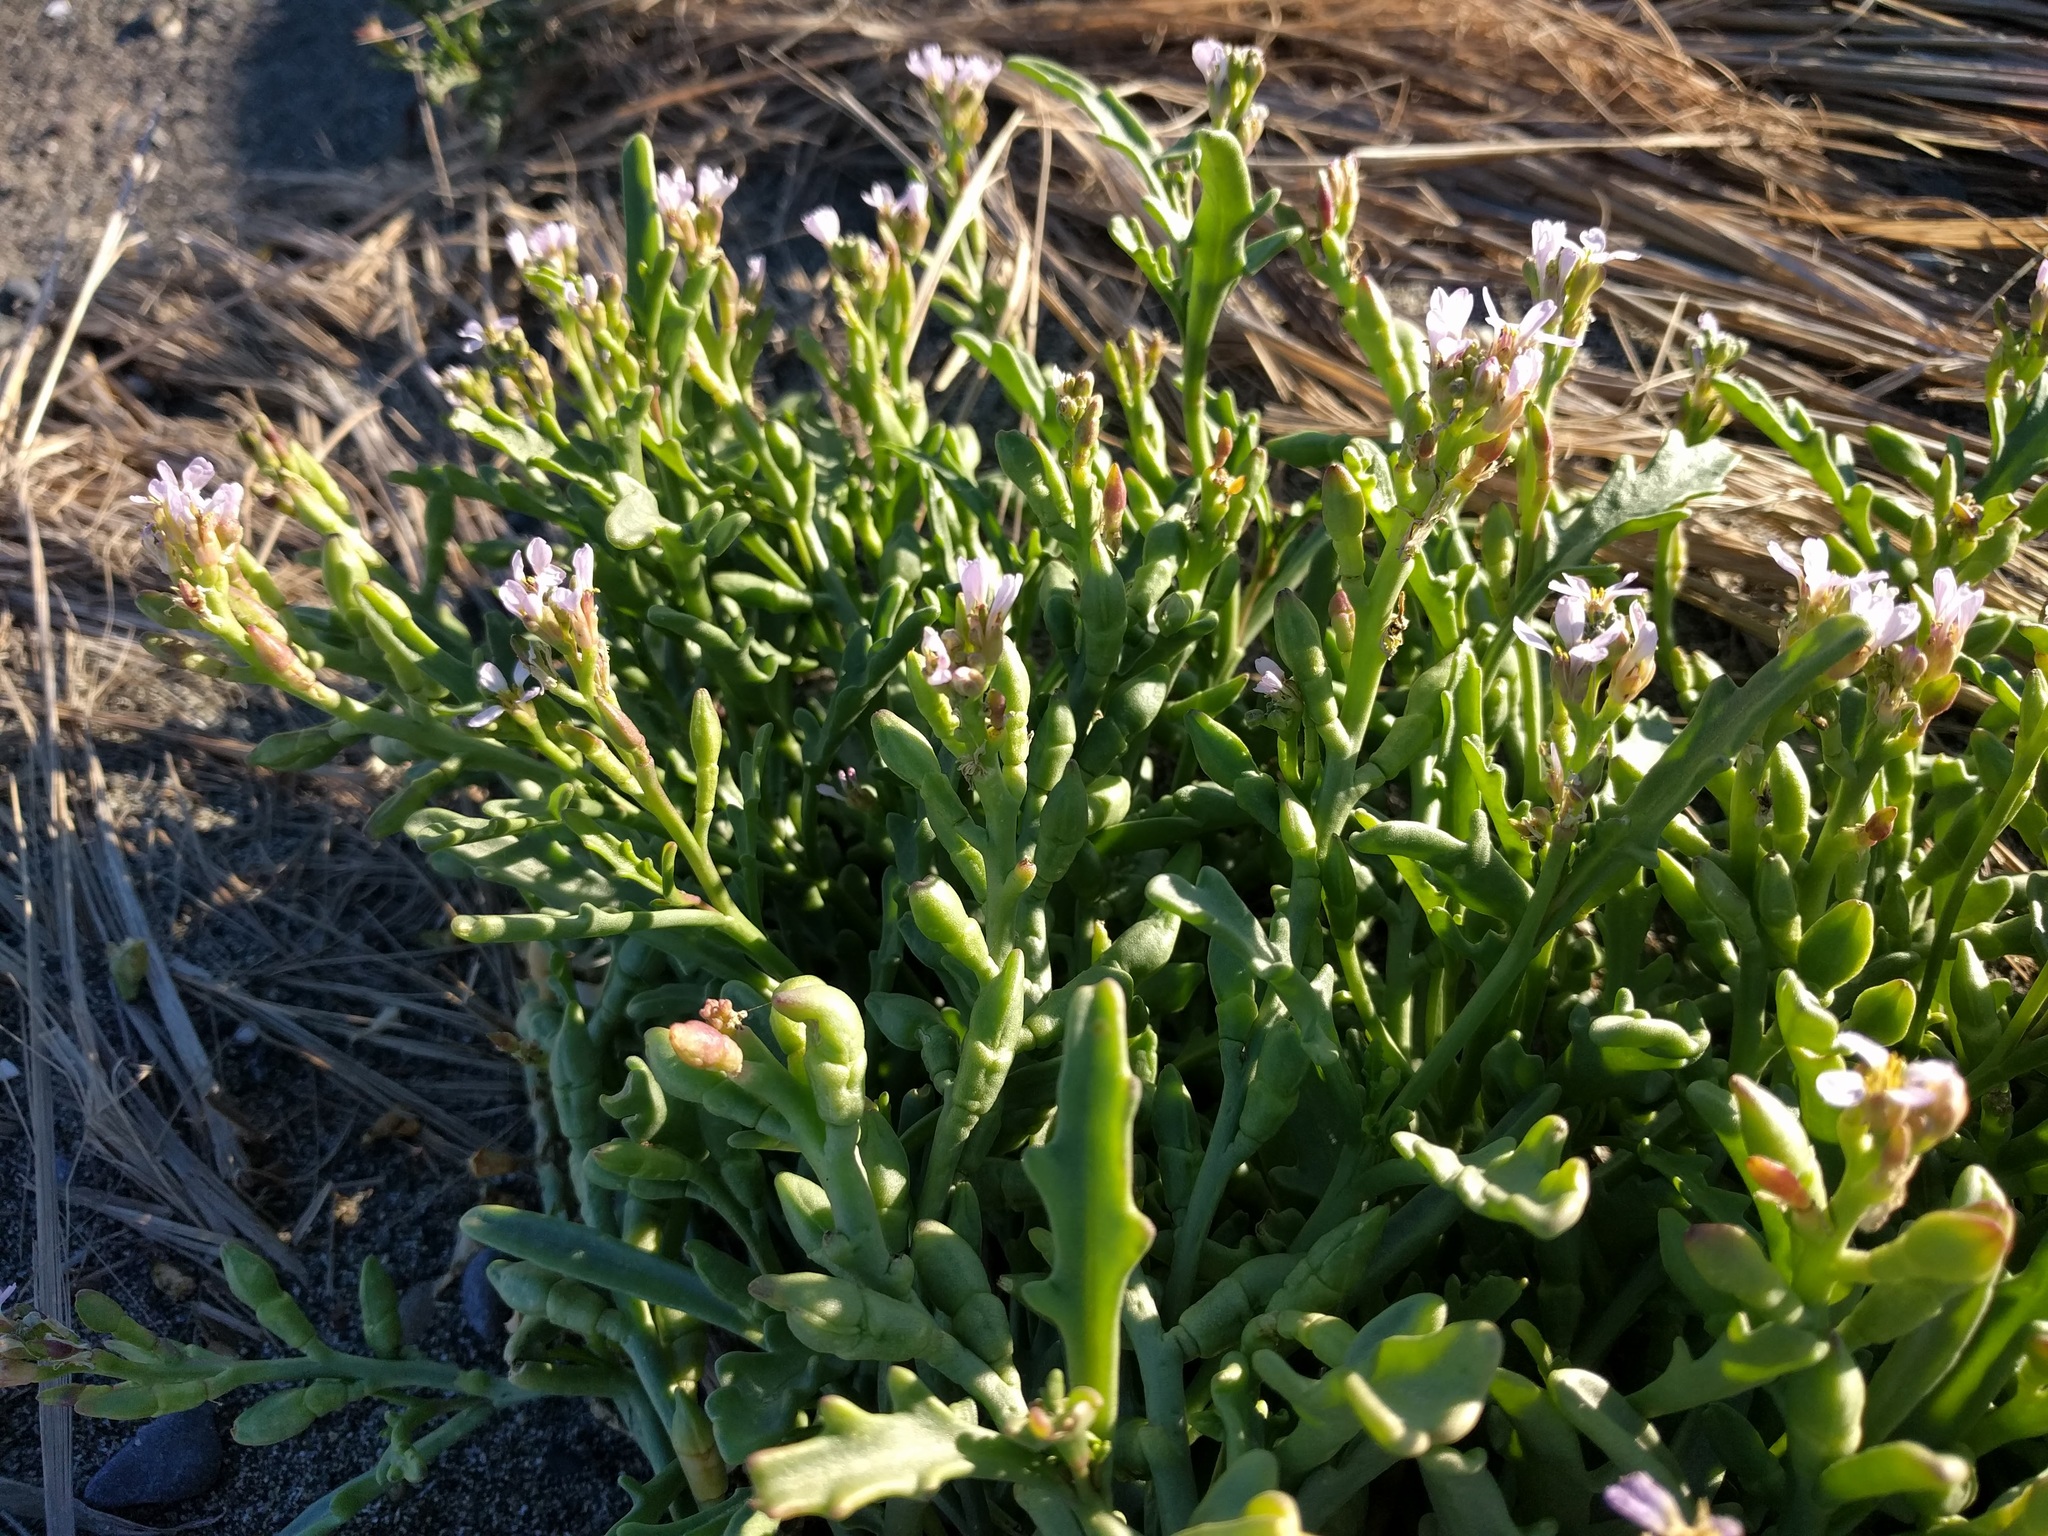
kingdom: Plantae
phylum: Tracheophyta
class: Magnoliopsida
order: Brassicales
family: Brassicaceae
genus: Cakile
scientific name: Cakile maritima
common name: Sea rocket
